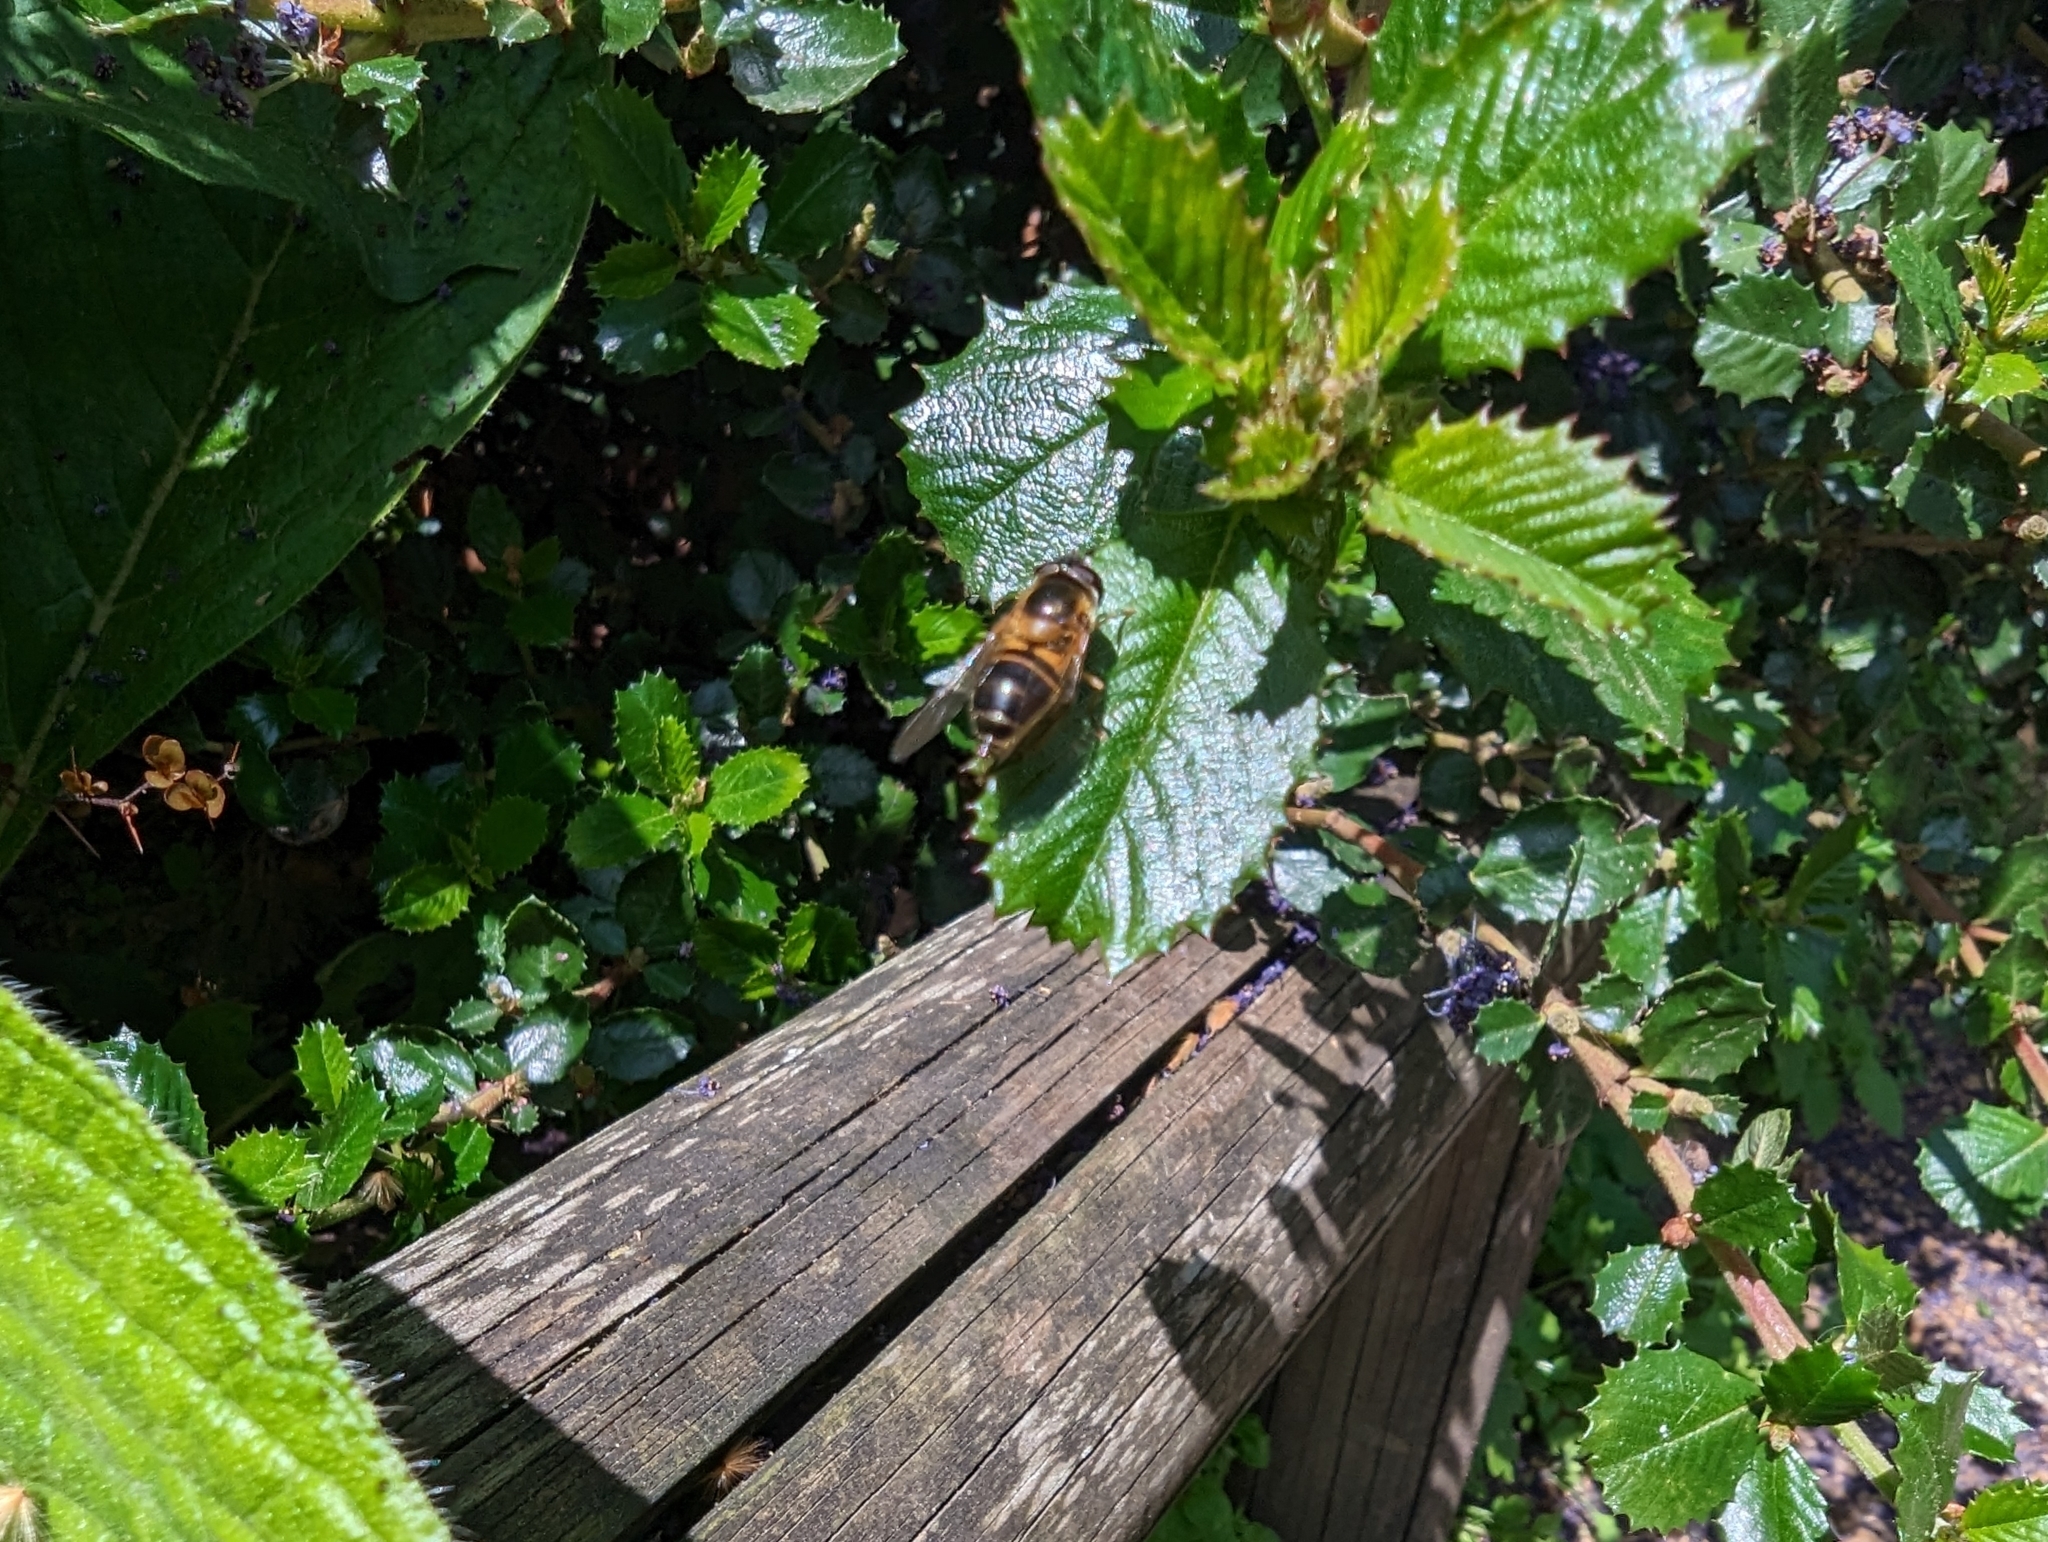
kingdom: Animalia
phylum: Arthropoda
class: Insecta
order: Diptera
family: Syrphidae
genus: Epistrophe
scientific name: Epistrophe eligans
